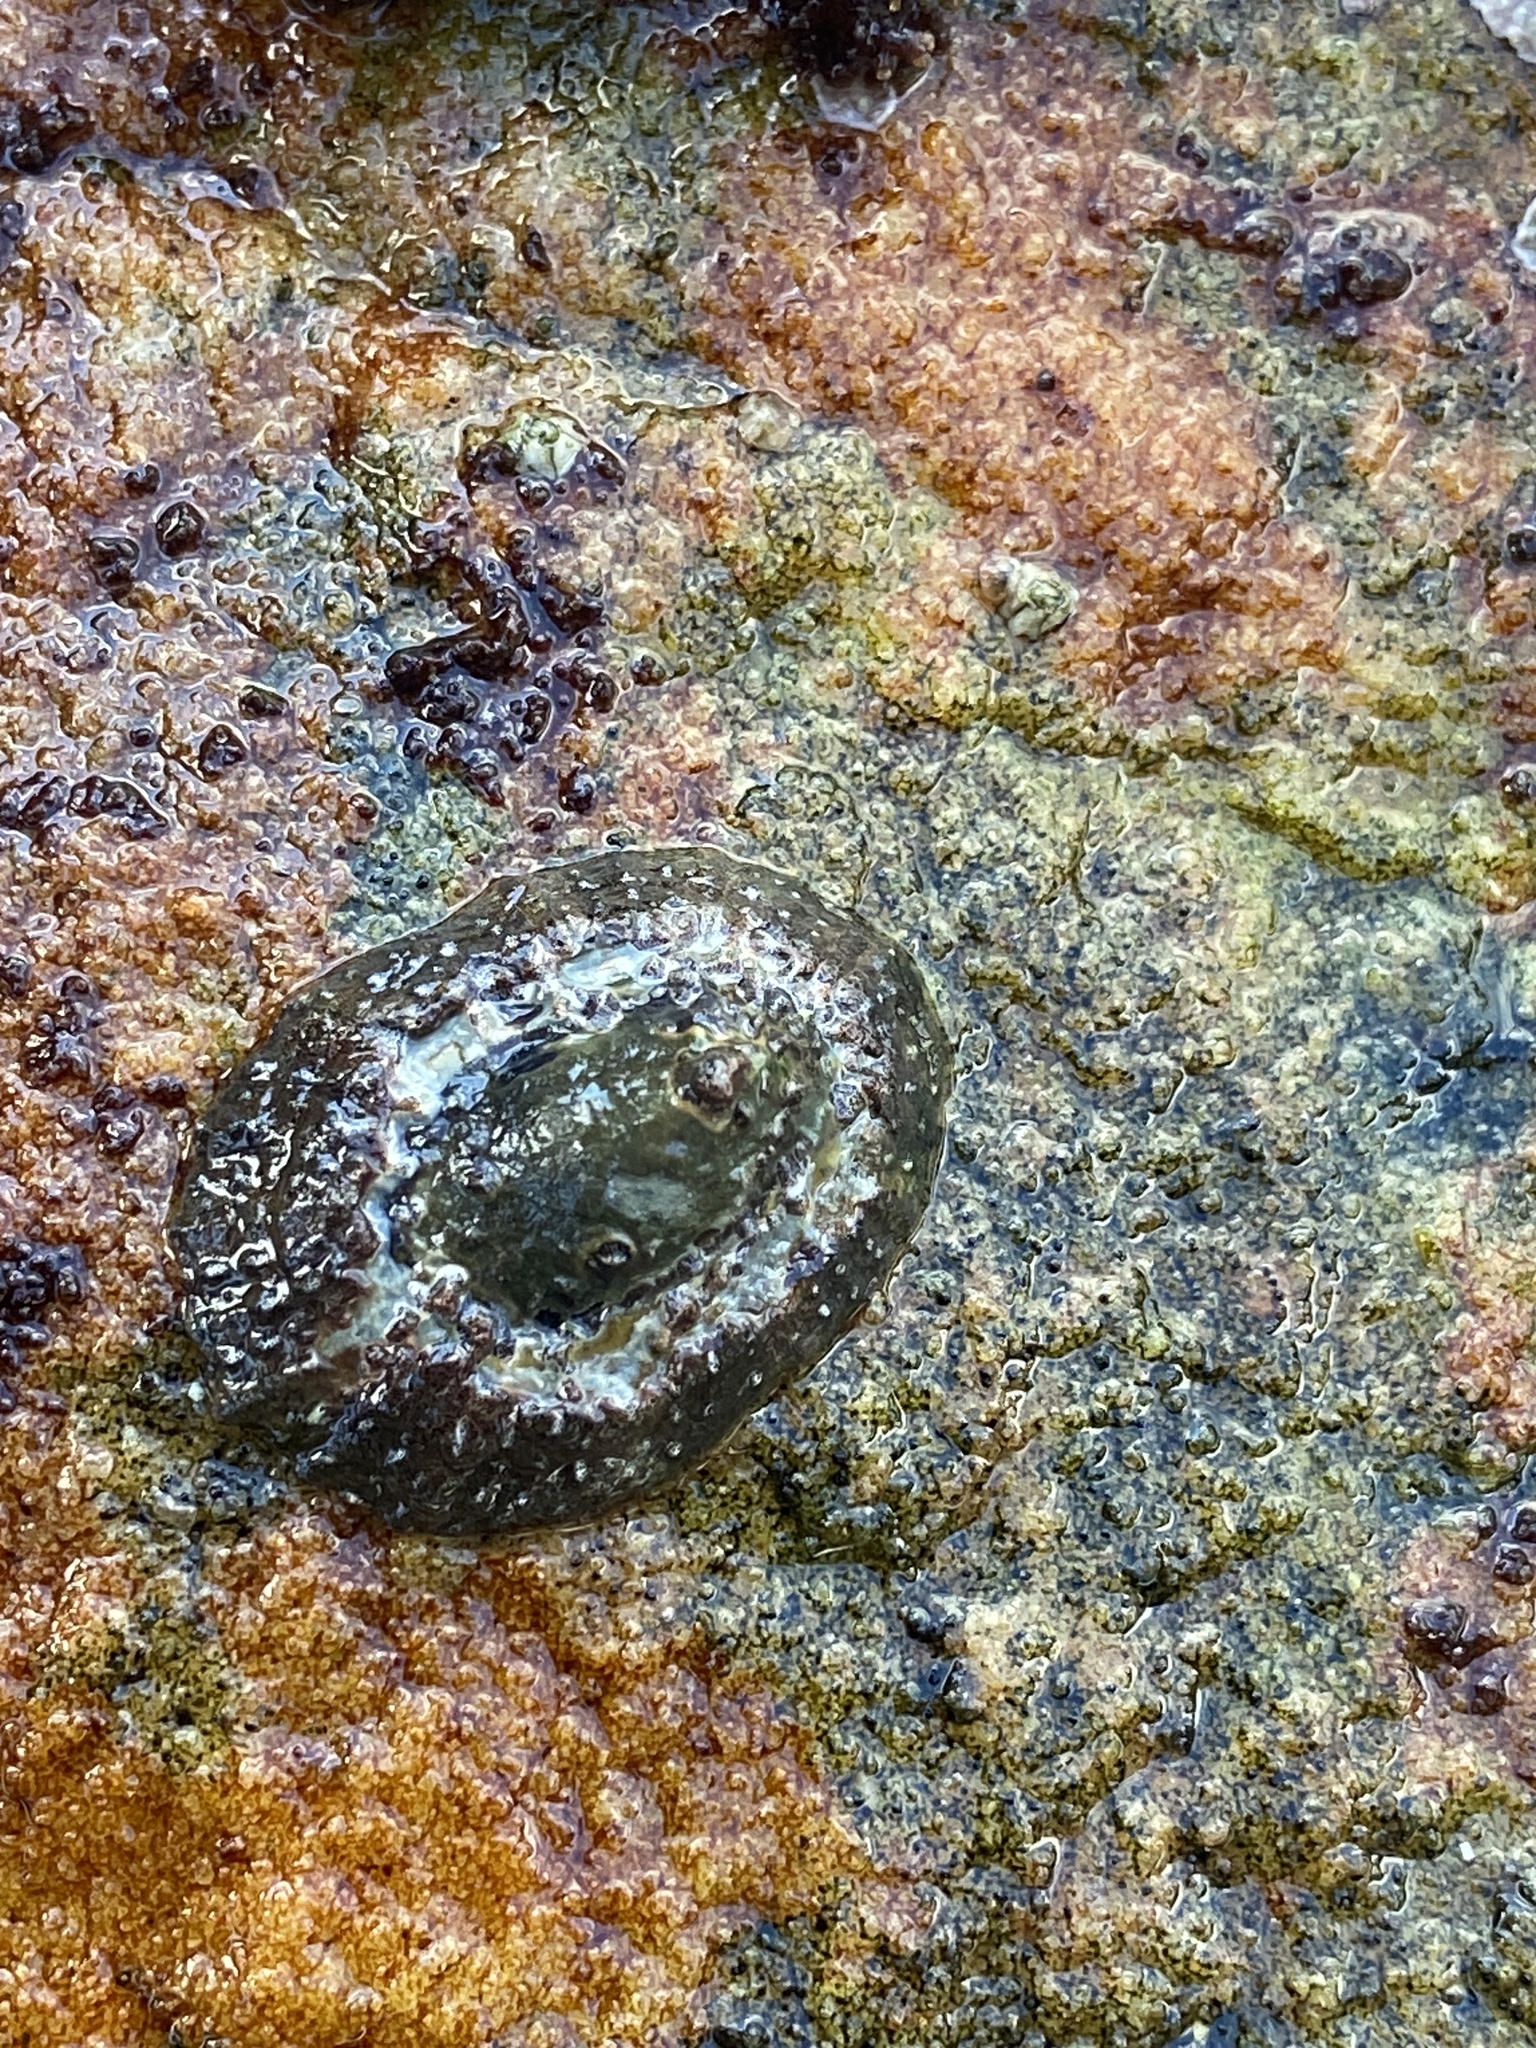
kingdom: Animalia
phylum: Mollusca
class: Gastropoda
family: Patellidae
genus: Scutellastra
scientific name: Scutellastra granularis
